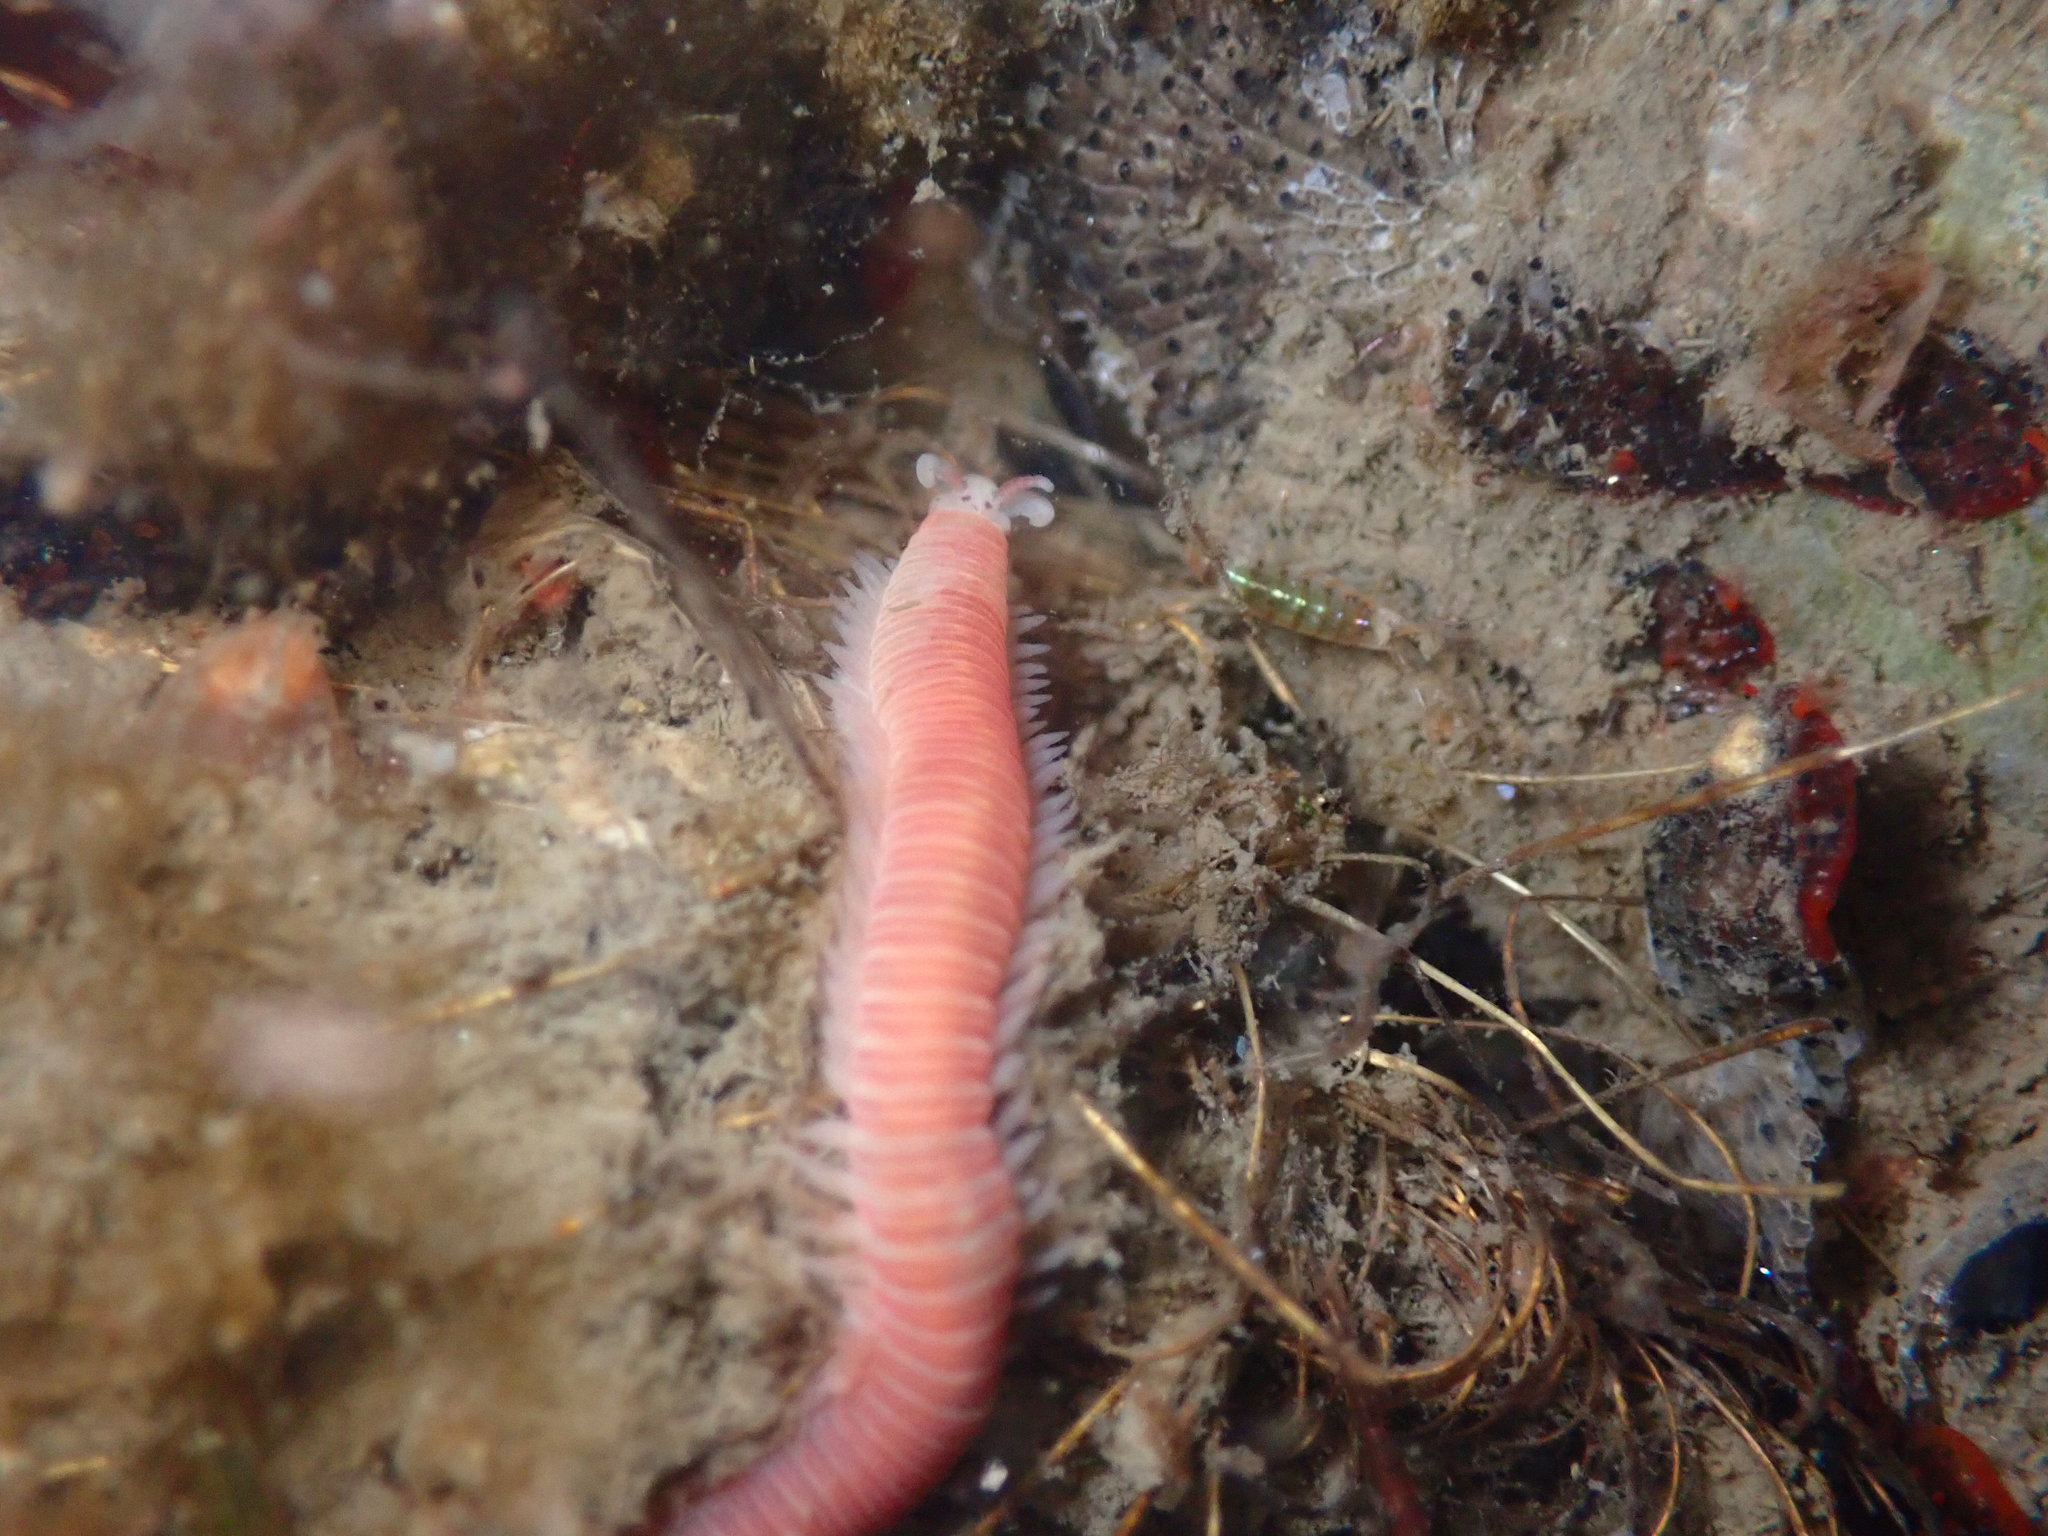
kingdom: Animalia
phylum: Annelida
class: Polychaeta
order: Eunicida
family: Dorvilleidae
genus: Dorvillea
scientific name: Dorvillea moniloceras
